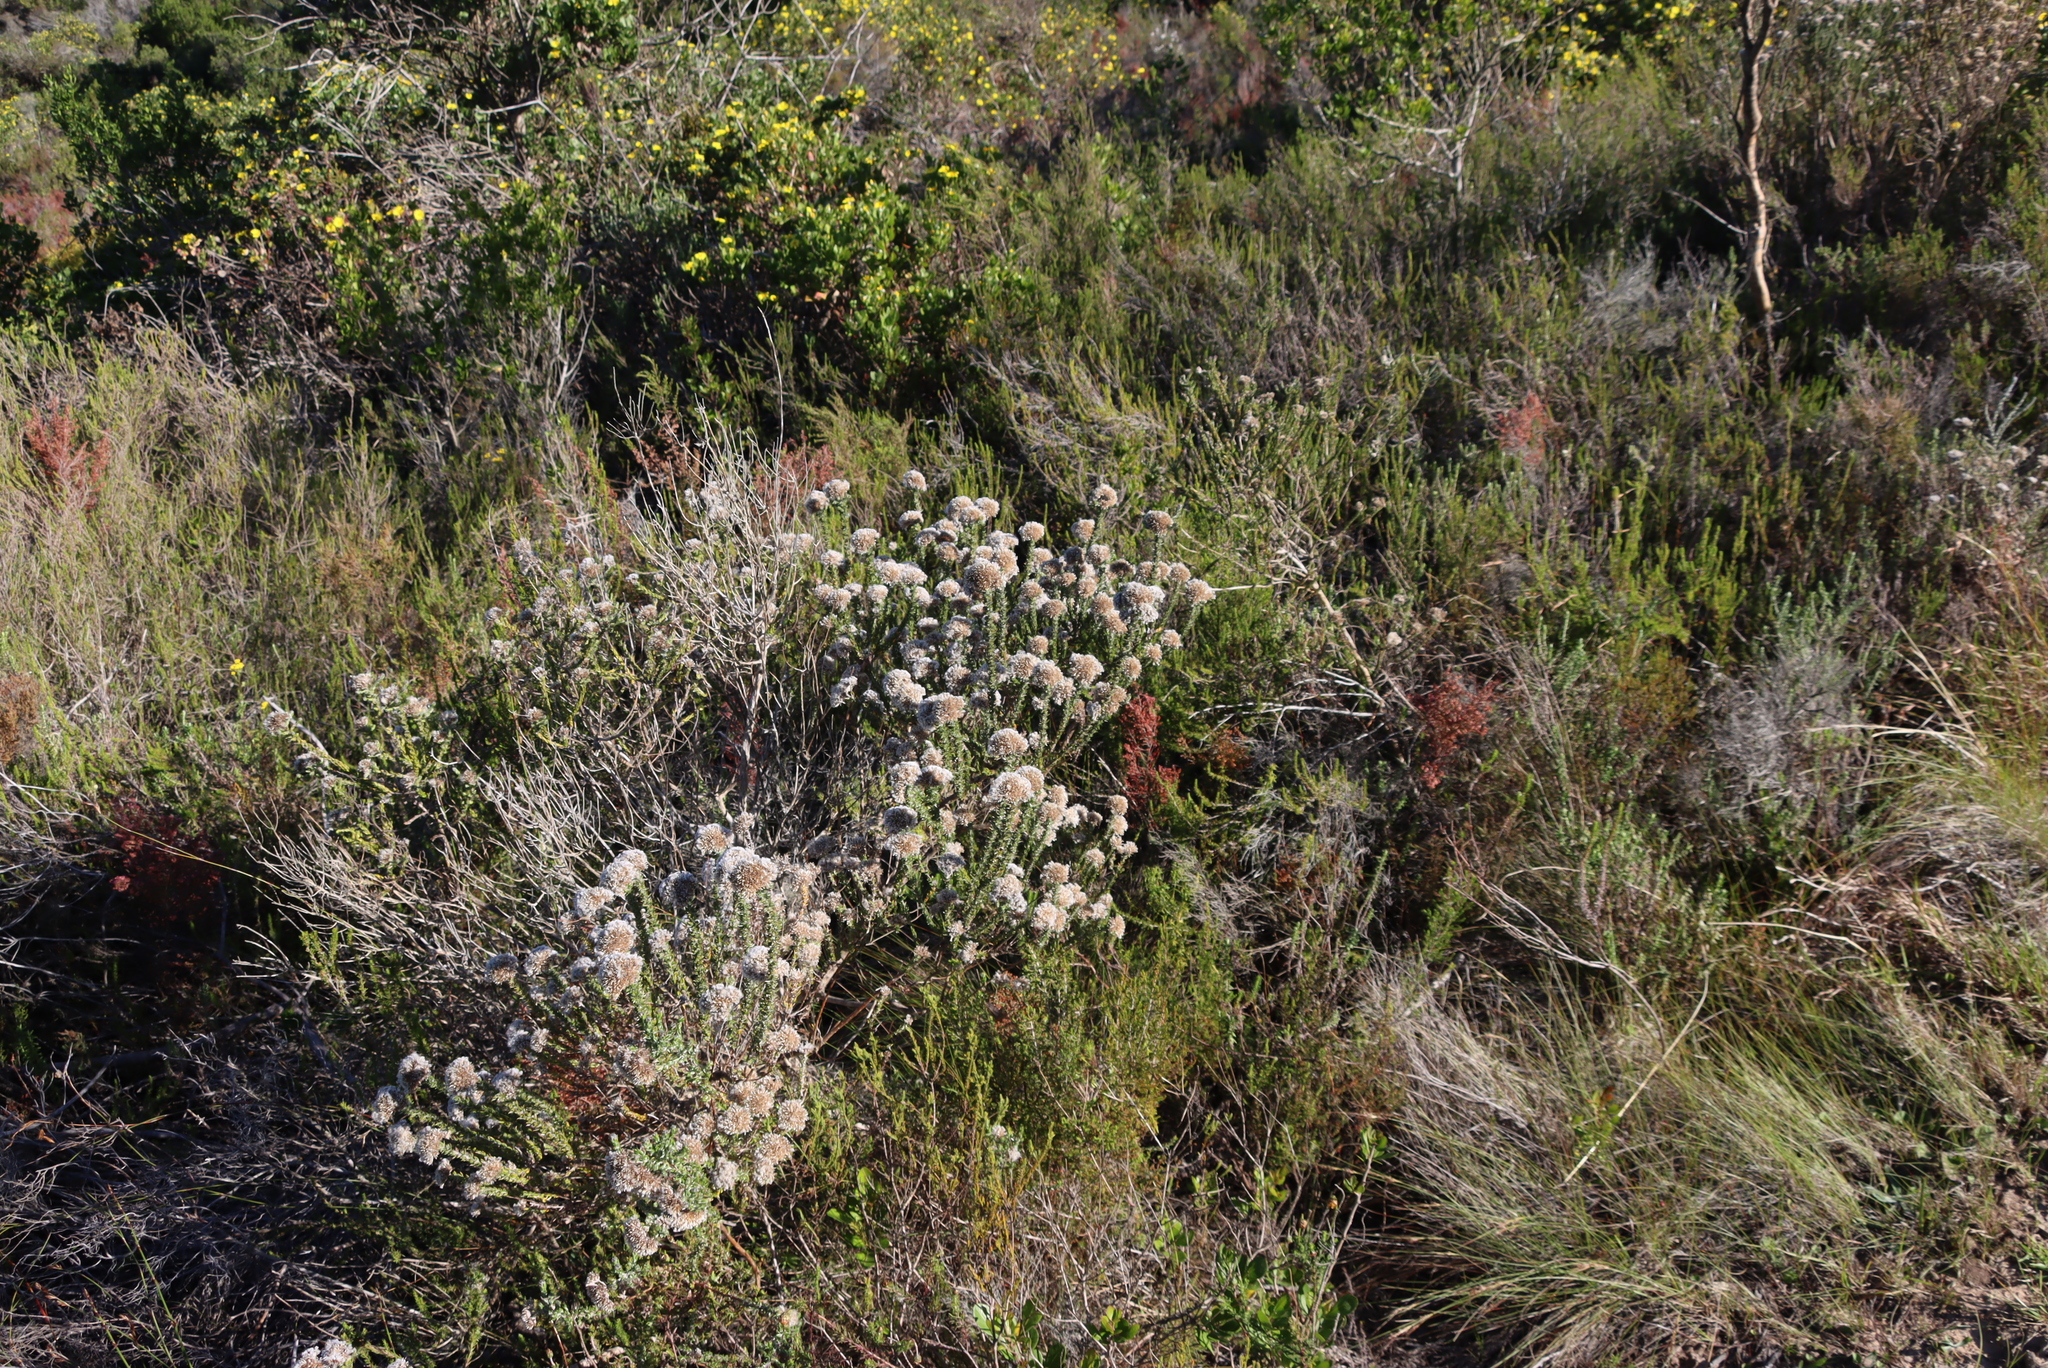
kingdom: Plantae
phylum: Tracheophyta
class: Magnoliopsida
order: Asterales
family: Asteraceae
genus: Metalasia
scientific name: Metalasia pungens
